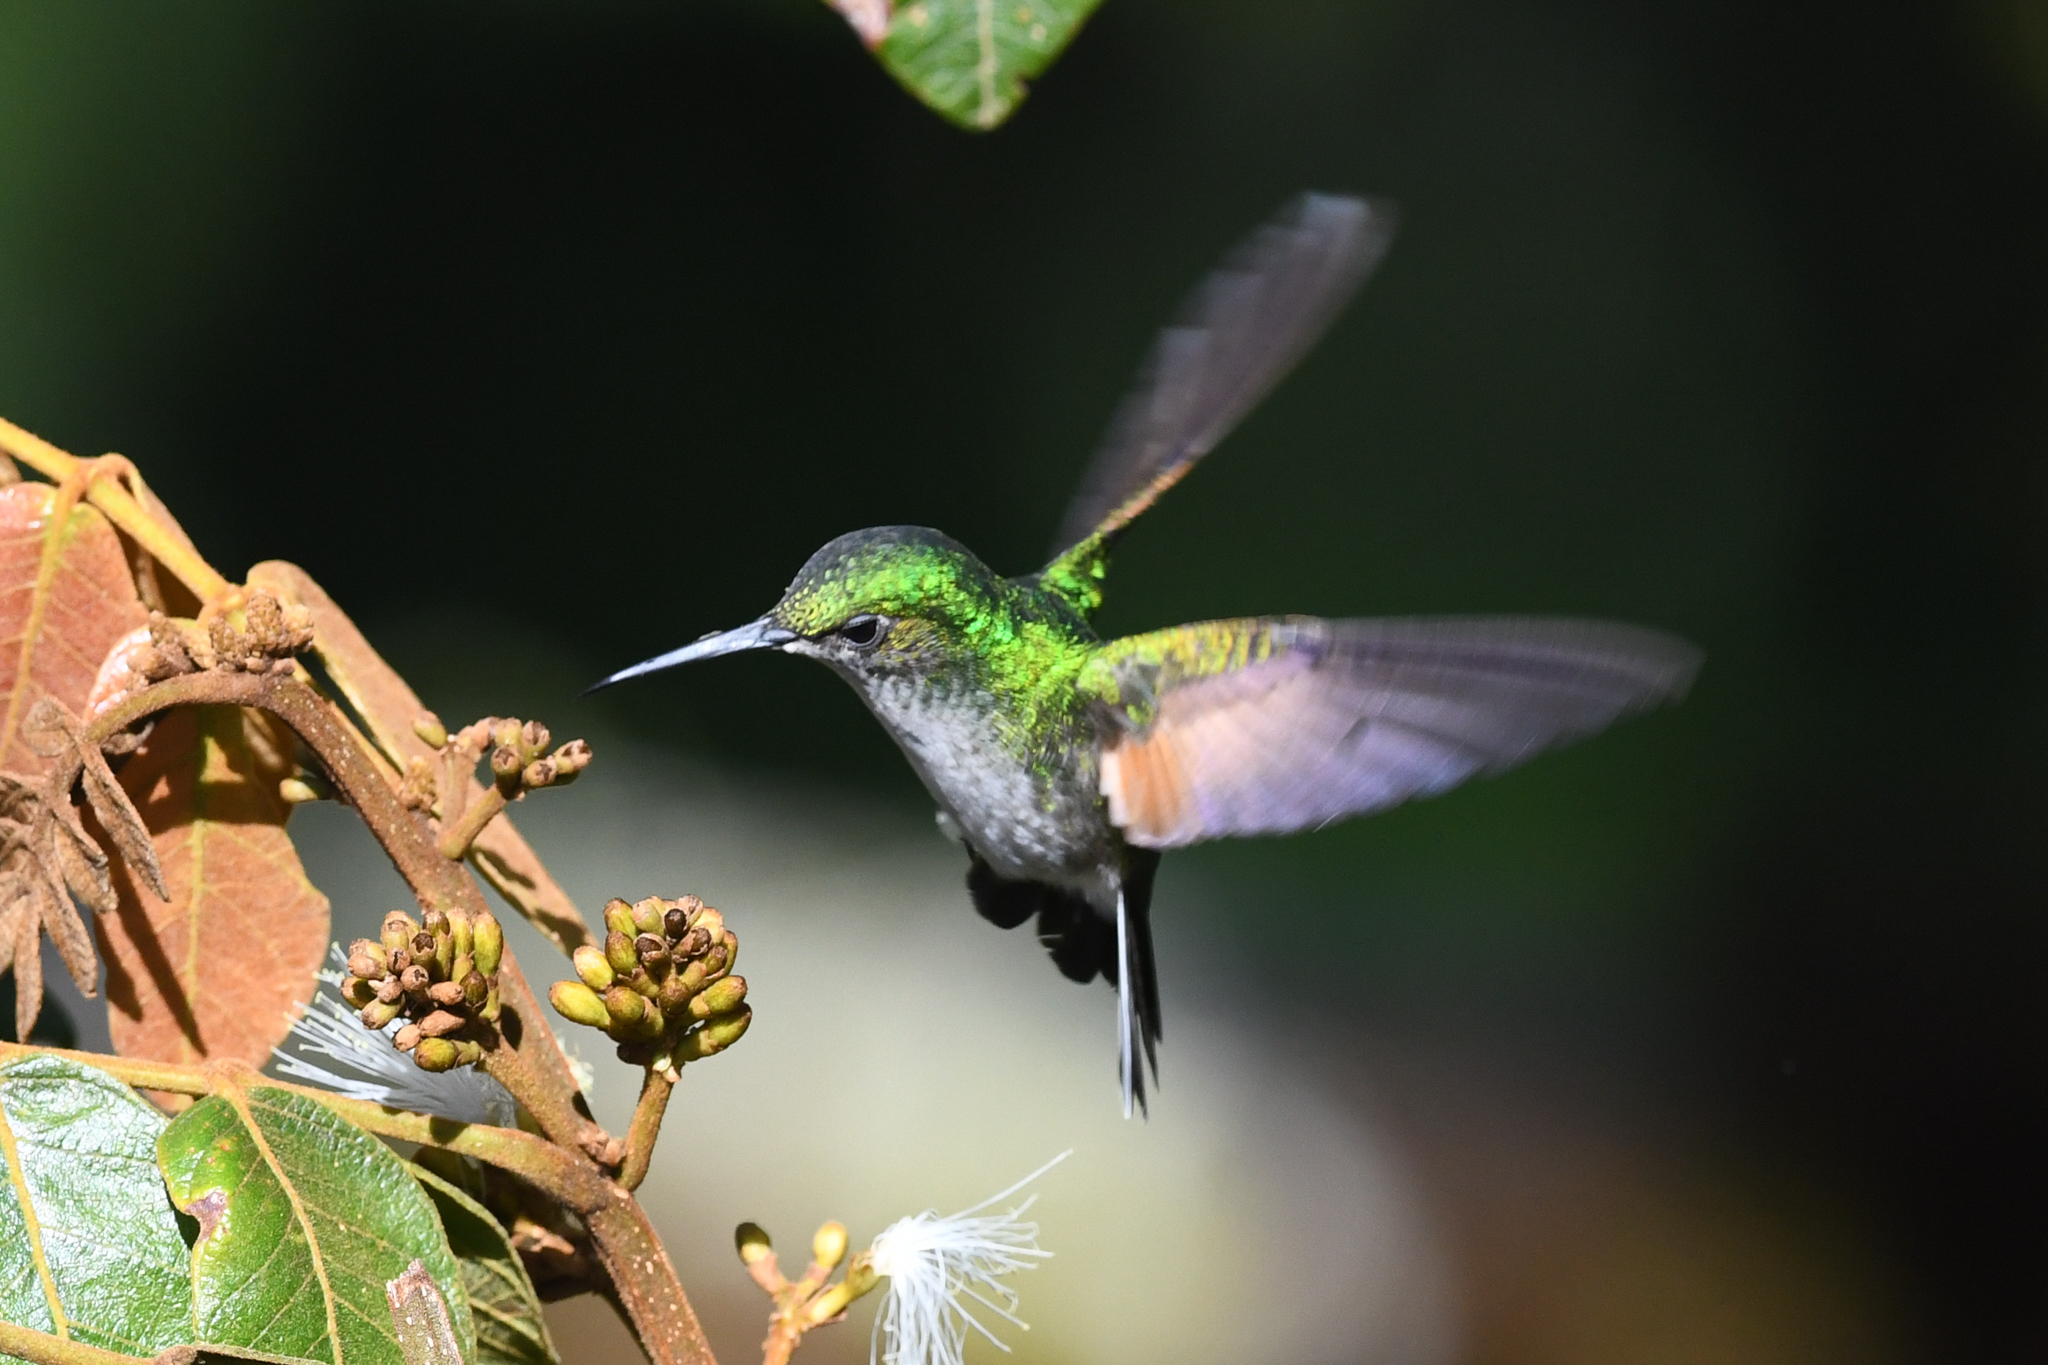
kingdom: Animalia
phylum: Chordata
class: Aves
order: Apodiformes
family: Trochilidae
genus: Eupherusa
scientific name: Eupherusa eximia
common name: Stripe-tailed hummingbird
